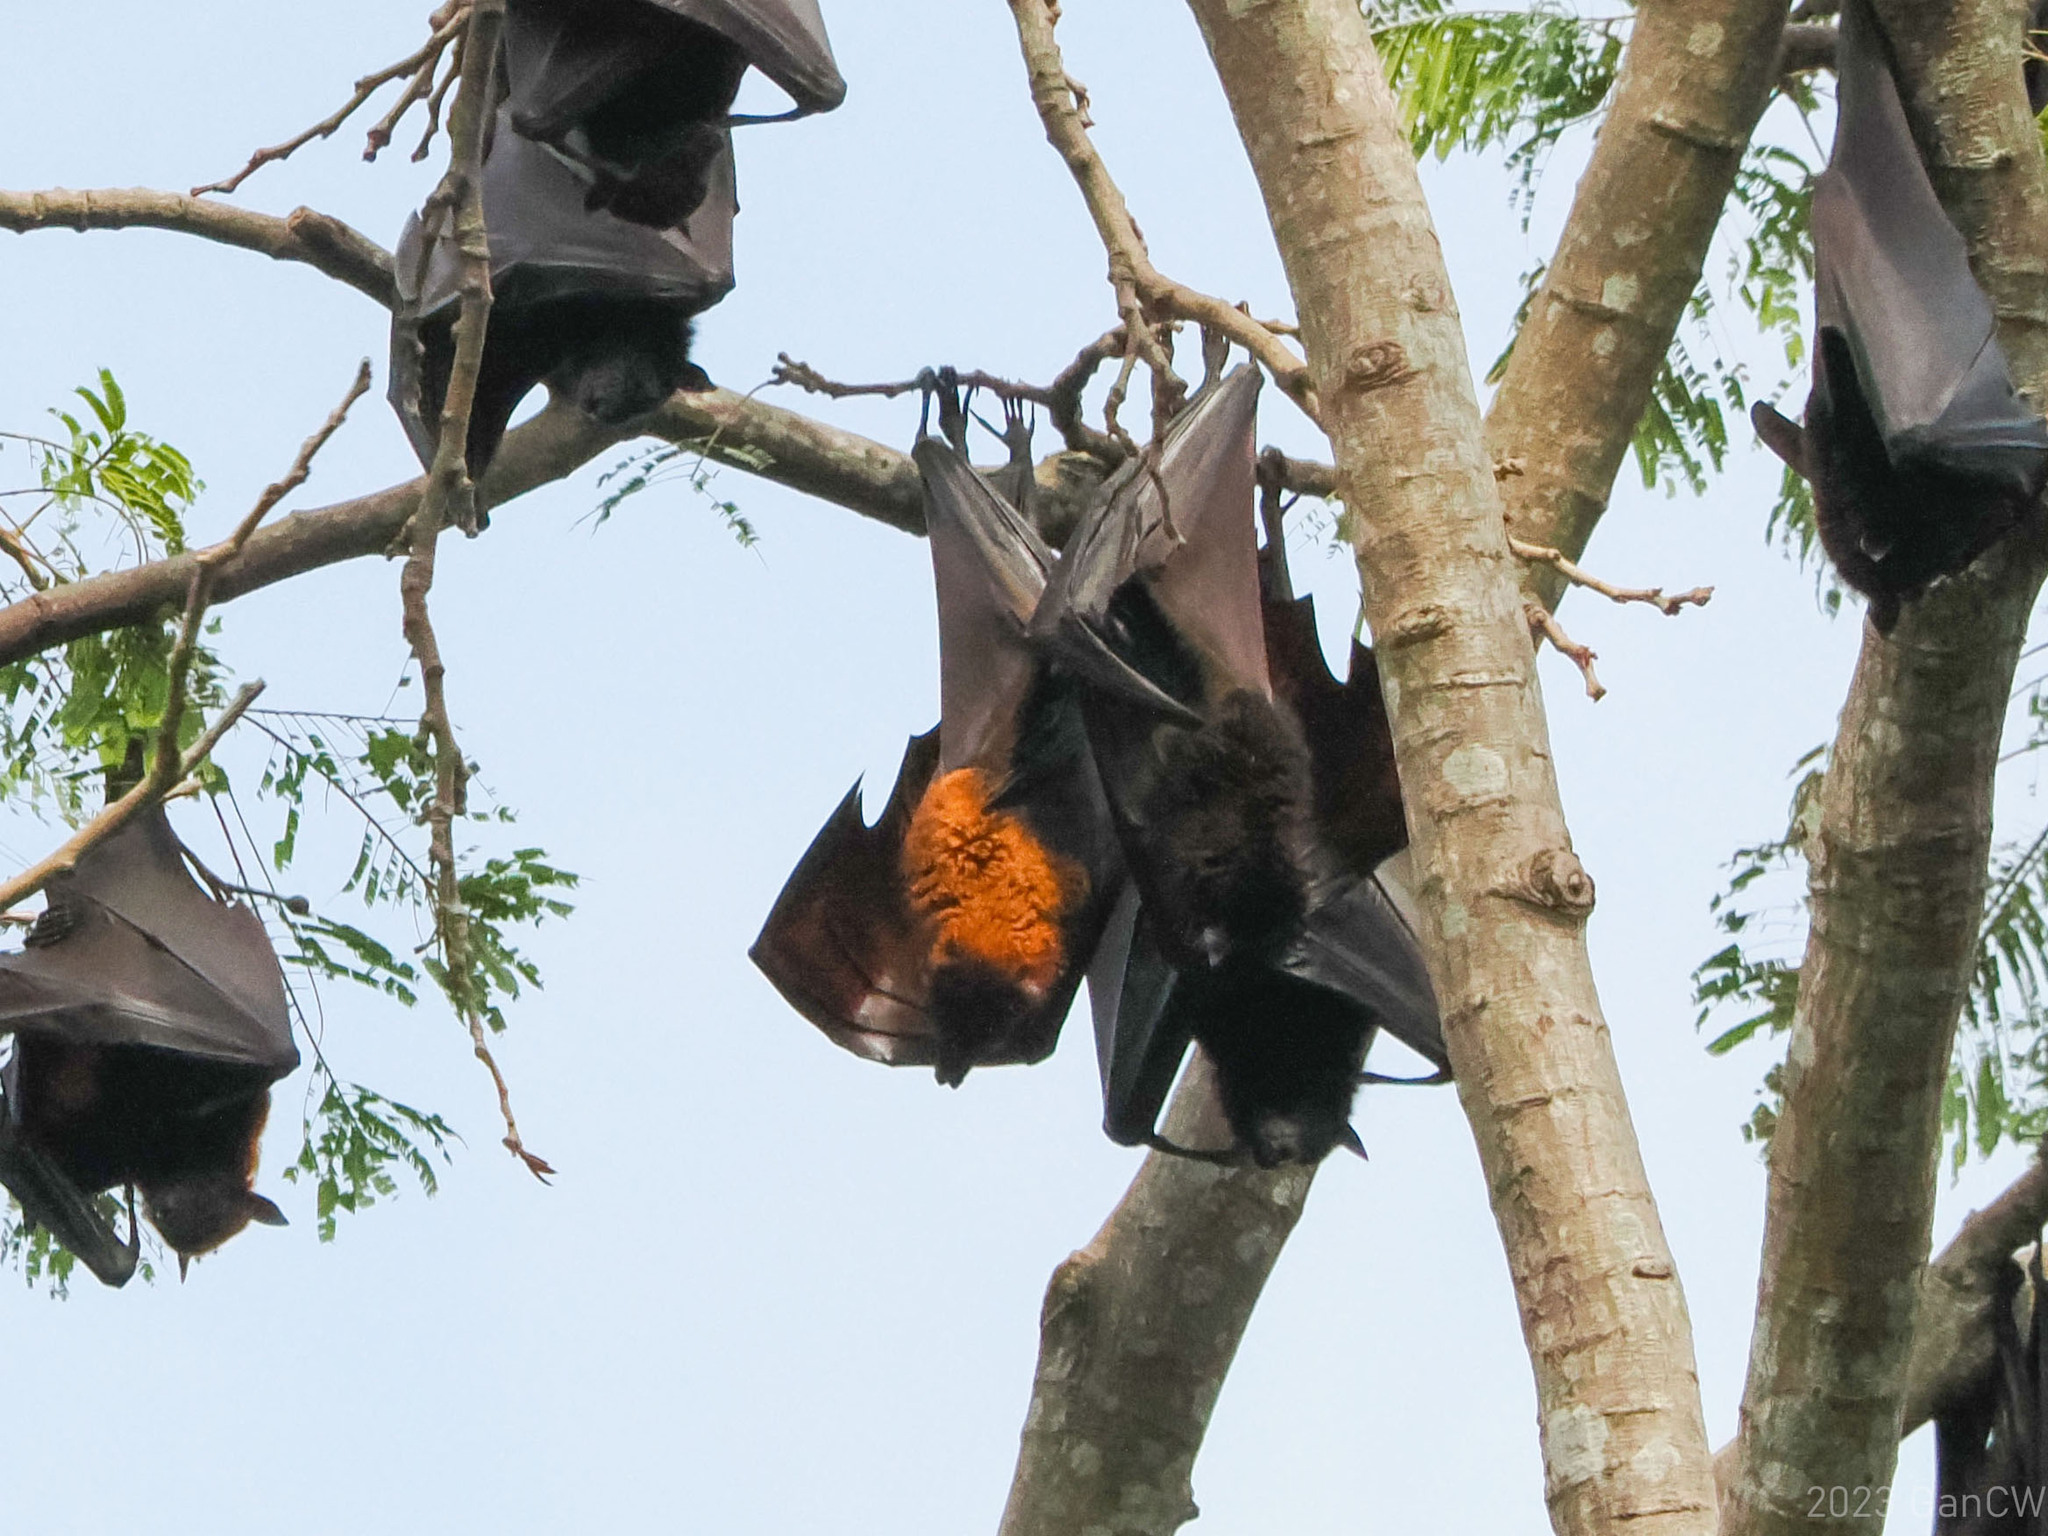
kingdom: Animalia
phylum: Chordata
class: Mammalia
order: Chiroptera
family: Pteropodidae
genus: Pteropus
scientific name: Pteropus vampyrus
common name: Large flying fox
